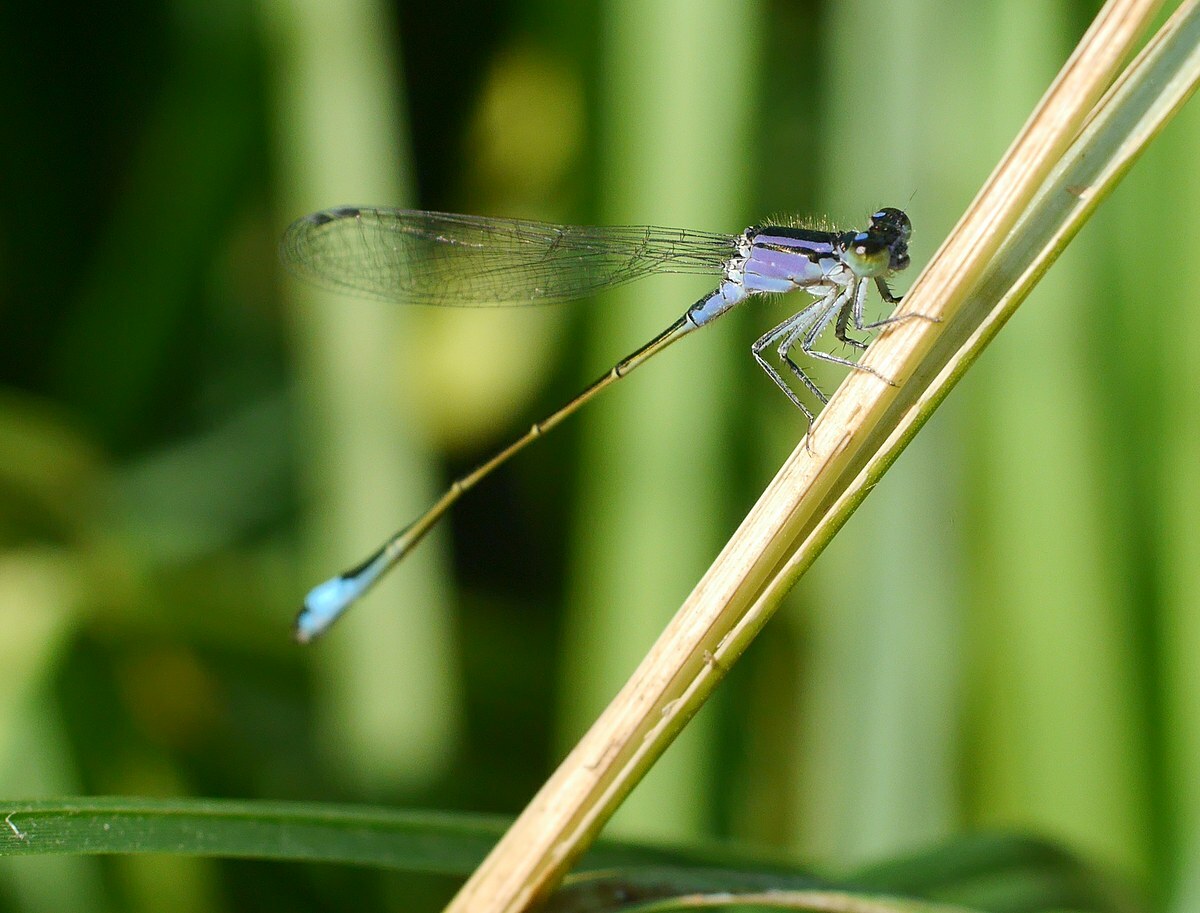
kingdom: Animalia
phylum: Arthropoda
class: Insecta
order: Odonata
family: Coenagrionidae
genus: Ischnura
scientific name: Ischnura elegans
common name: Blue-tailed damselfly
